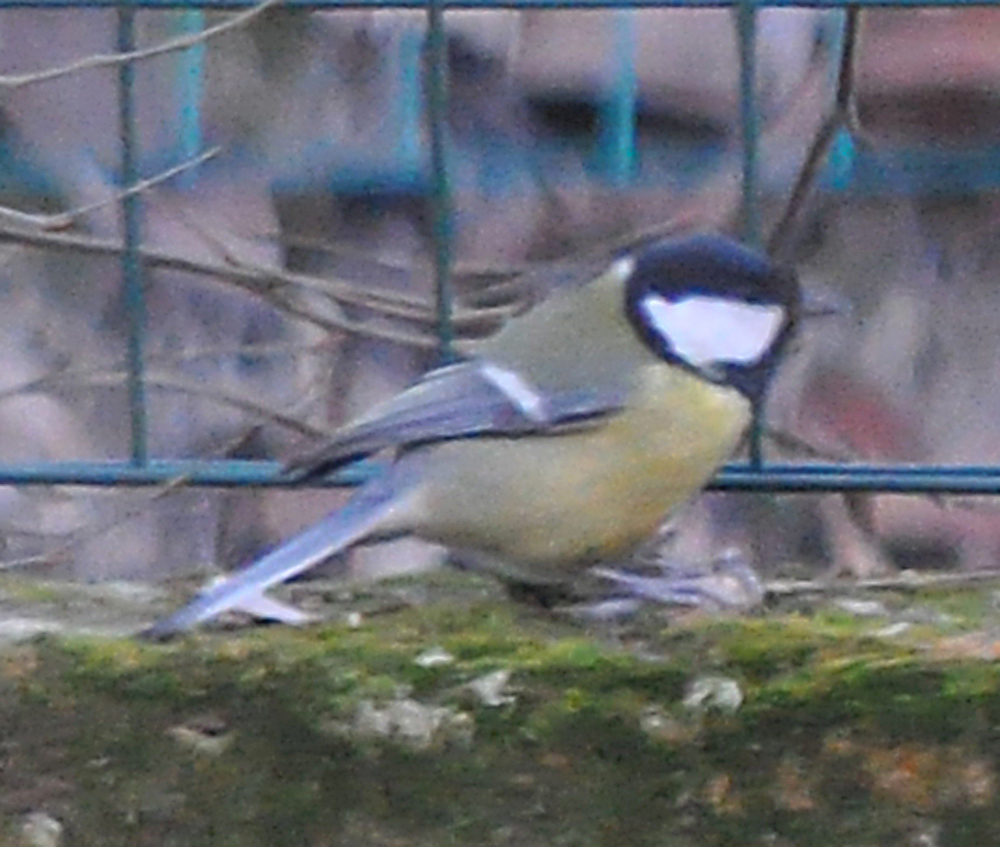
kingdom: Animalia
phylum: Chordata
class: Aves
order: Passeriformes
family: Paridae
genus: Parus
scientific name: Parus major
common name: Great tit
